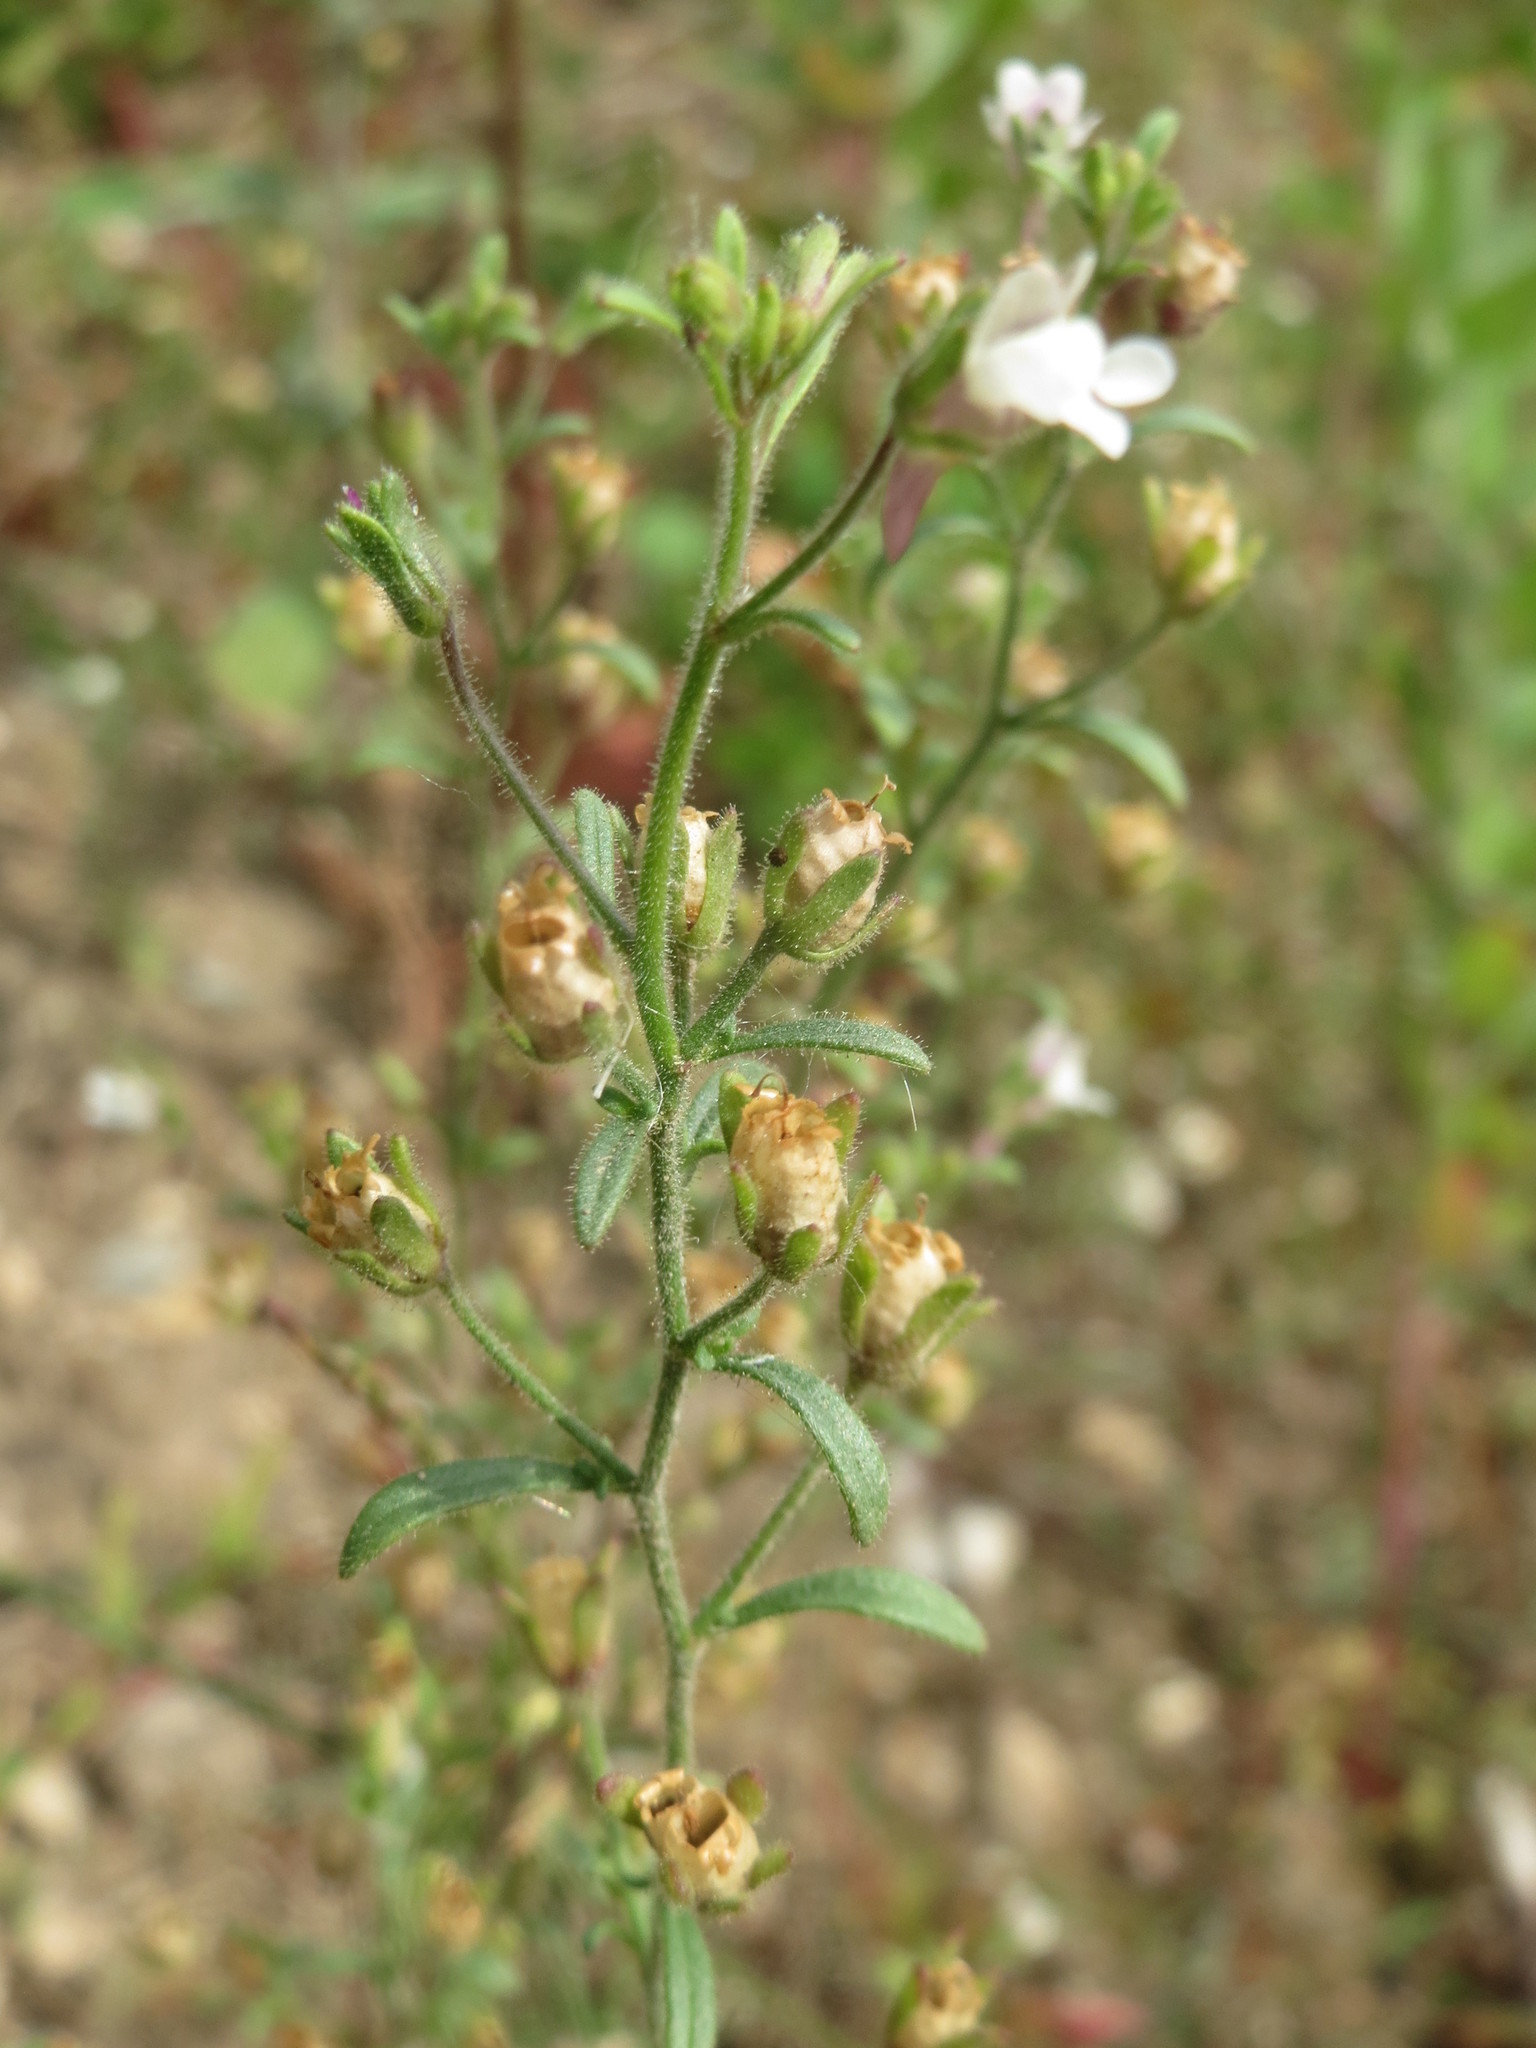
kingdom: Plantae
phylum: Tracheophyta
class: Magnoliopsida
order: Lamiales
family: Plantaginaceae
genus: Chaenorhinum
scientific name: Chaenorhinum minus
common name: Dwarf snapdragon
